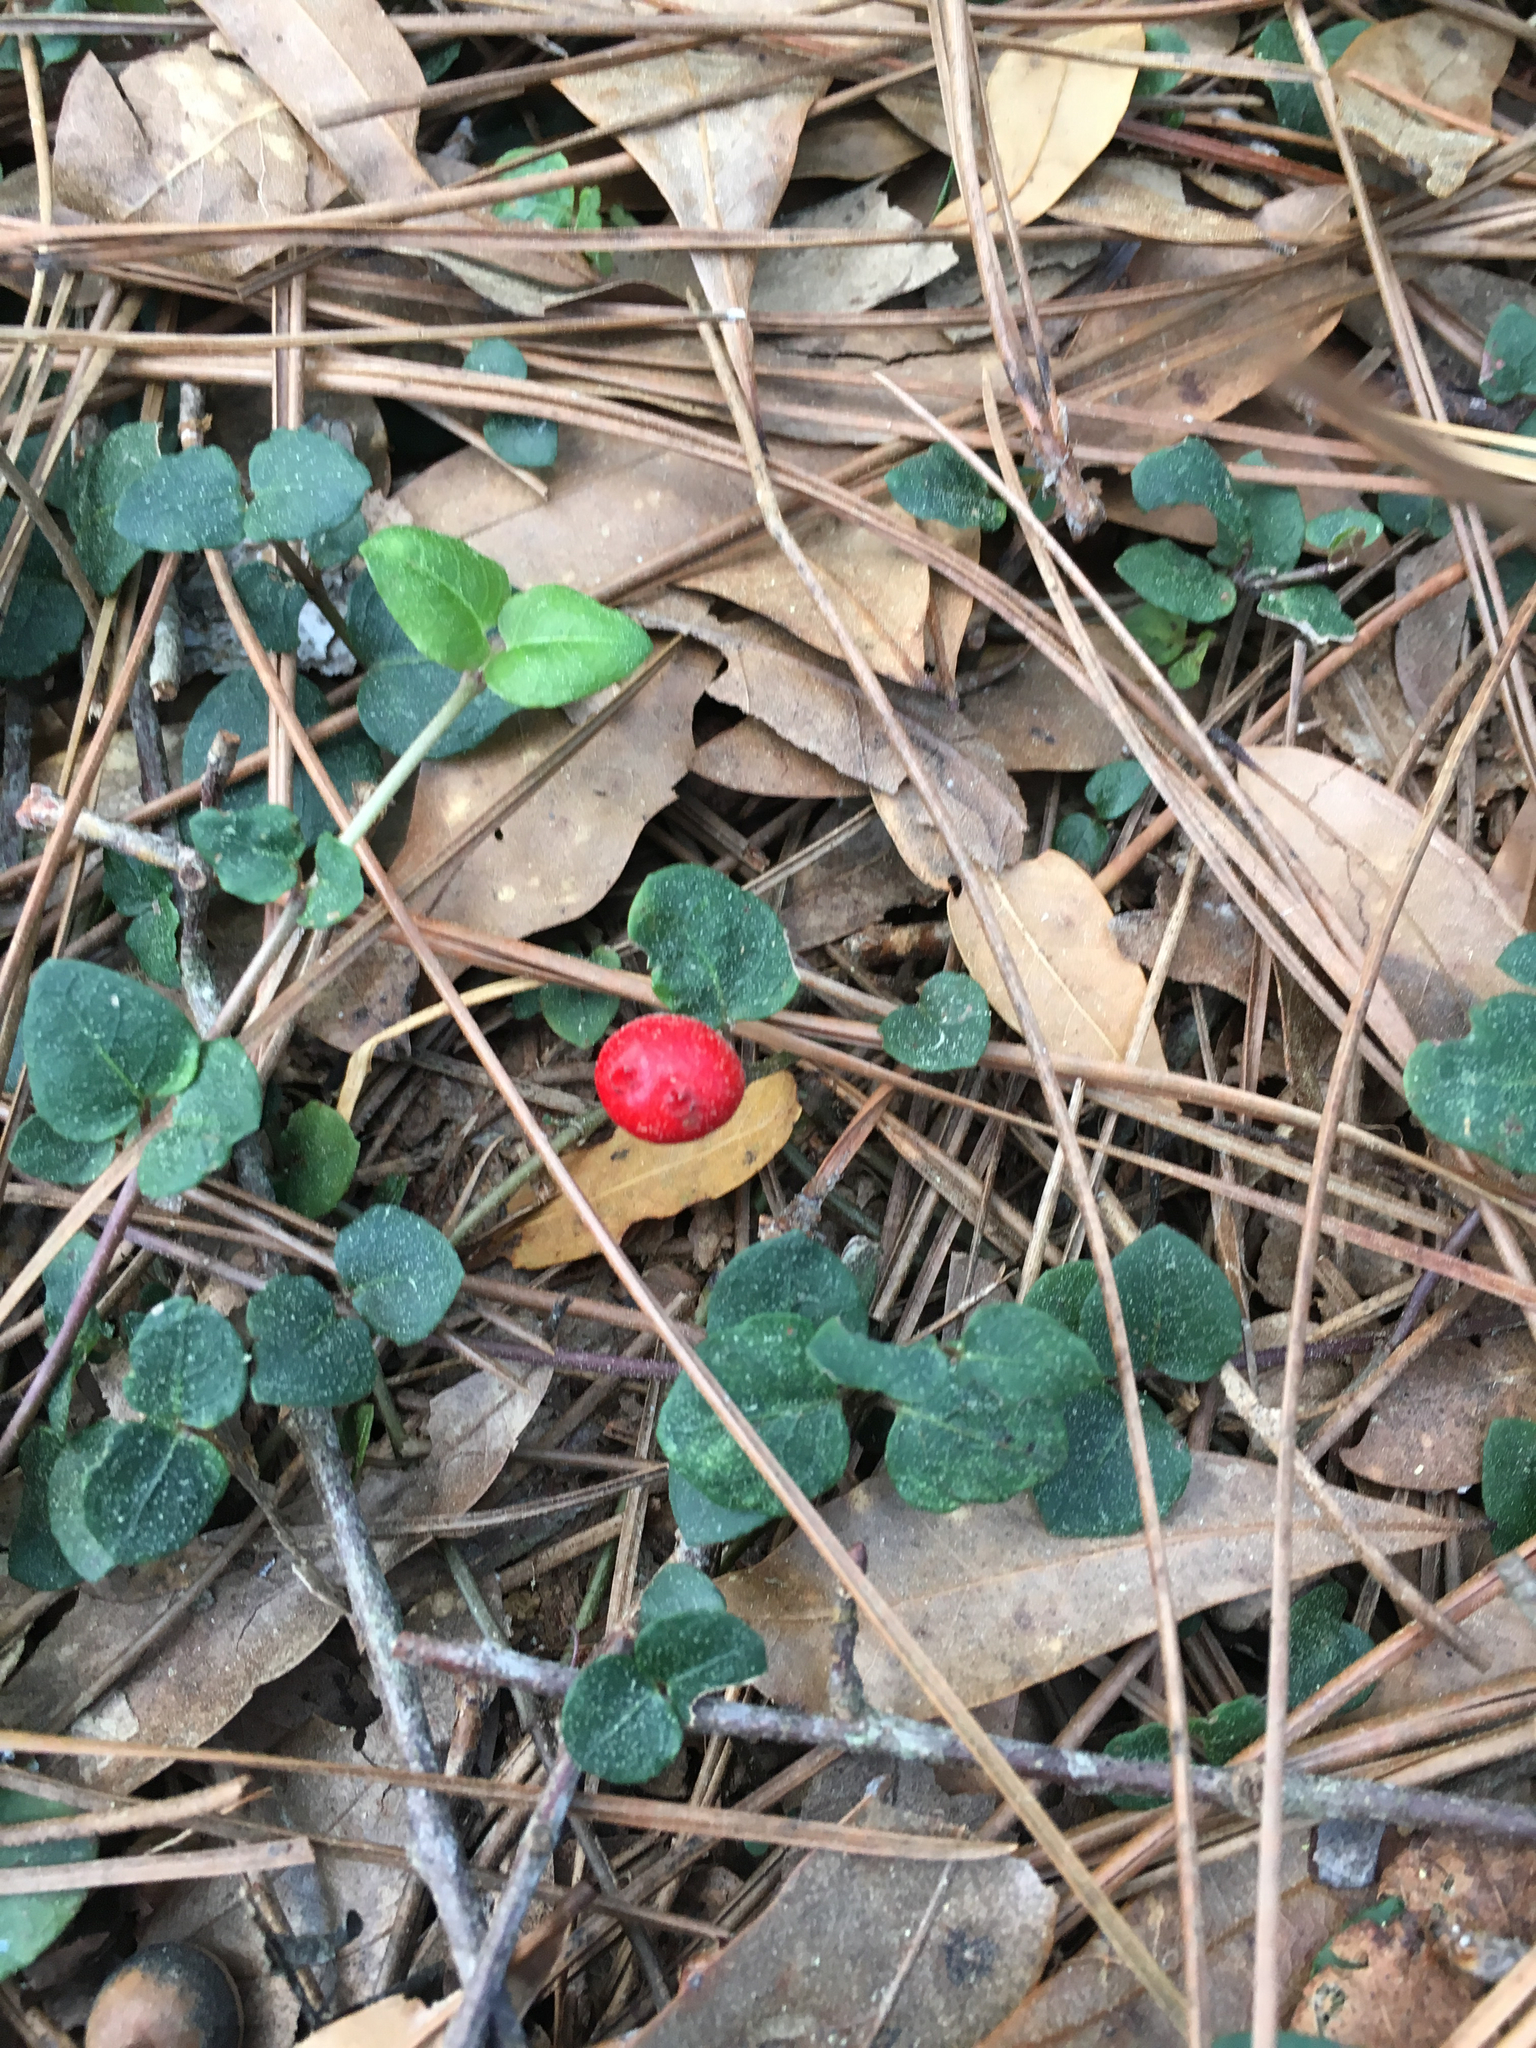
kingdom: Plantae
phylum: Tracheophyta
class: Magnoliopsida
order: Gentianales
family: Rubiaceae
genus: Mitchella
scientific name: Mitchella repens
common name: Partridge-berry
